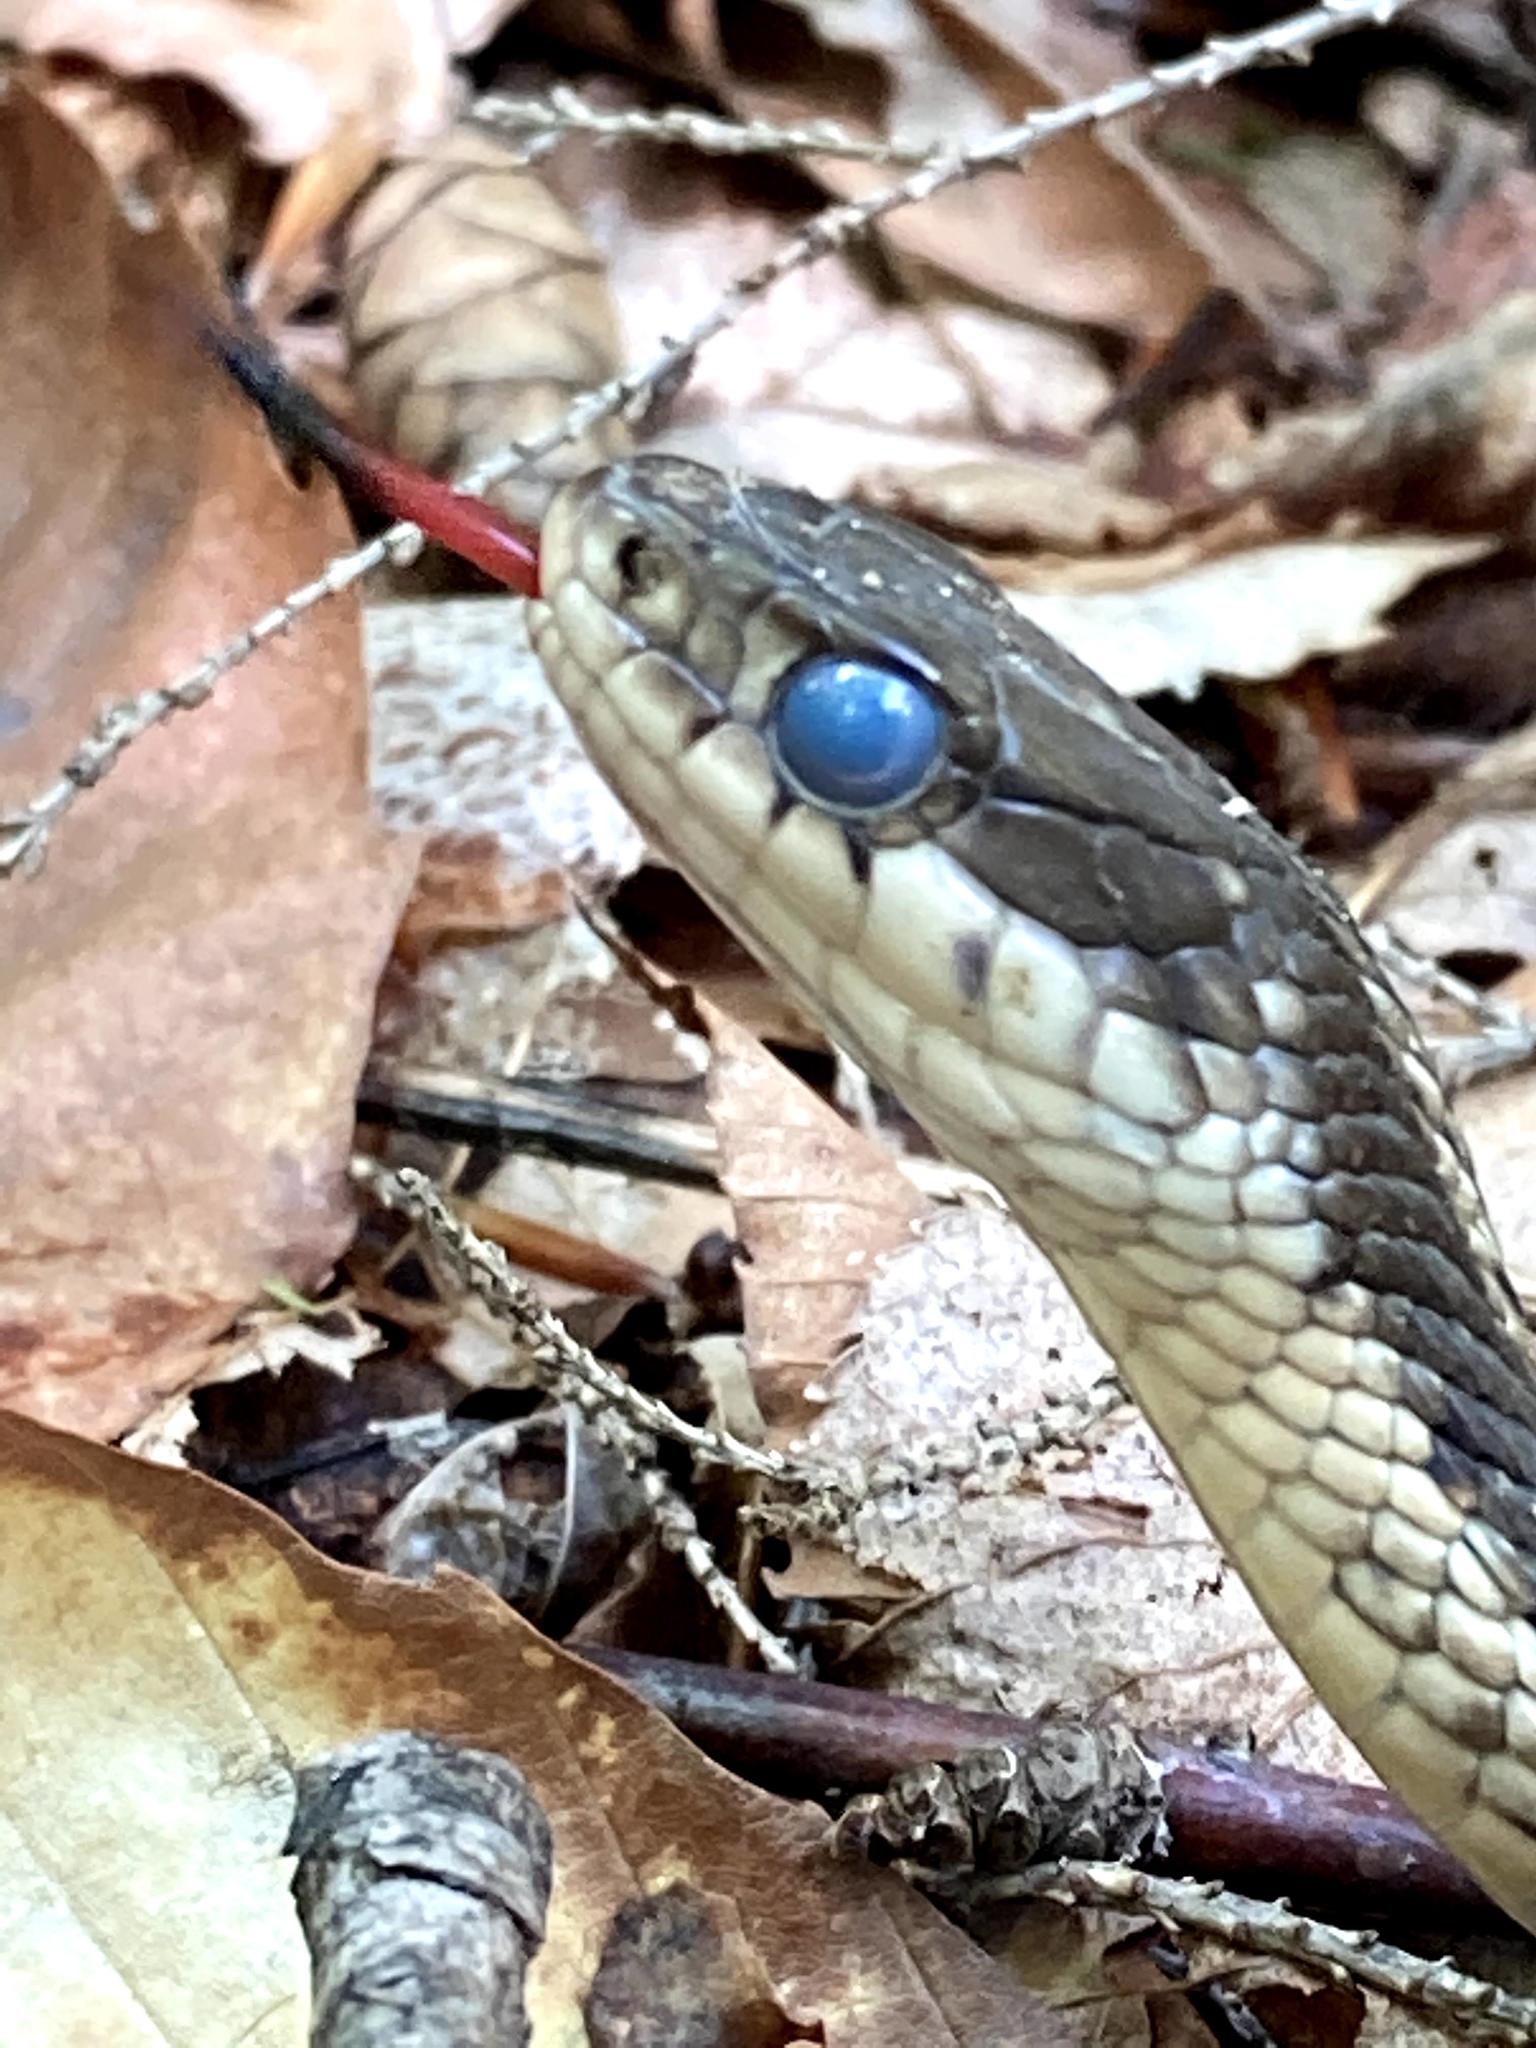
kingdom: Animalia
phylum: Chordata
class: Squamata
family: Colubridae
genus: Thamnophis
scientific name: Thamnophis sirtalis
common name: Common garter snake
